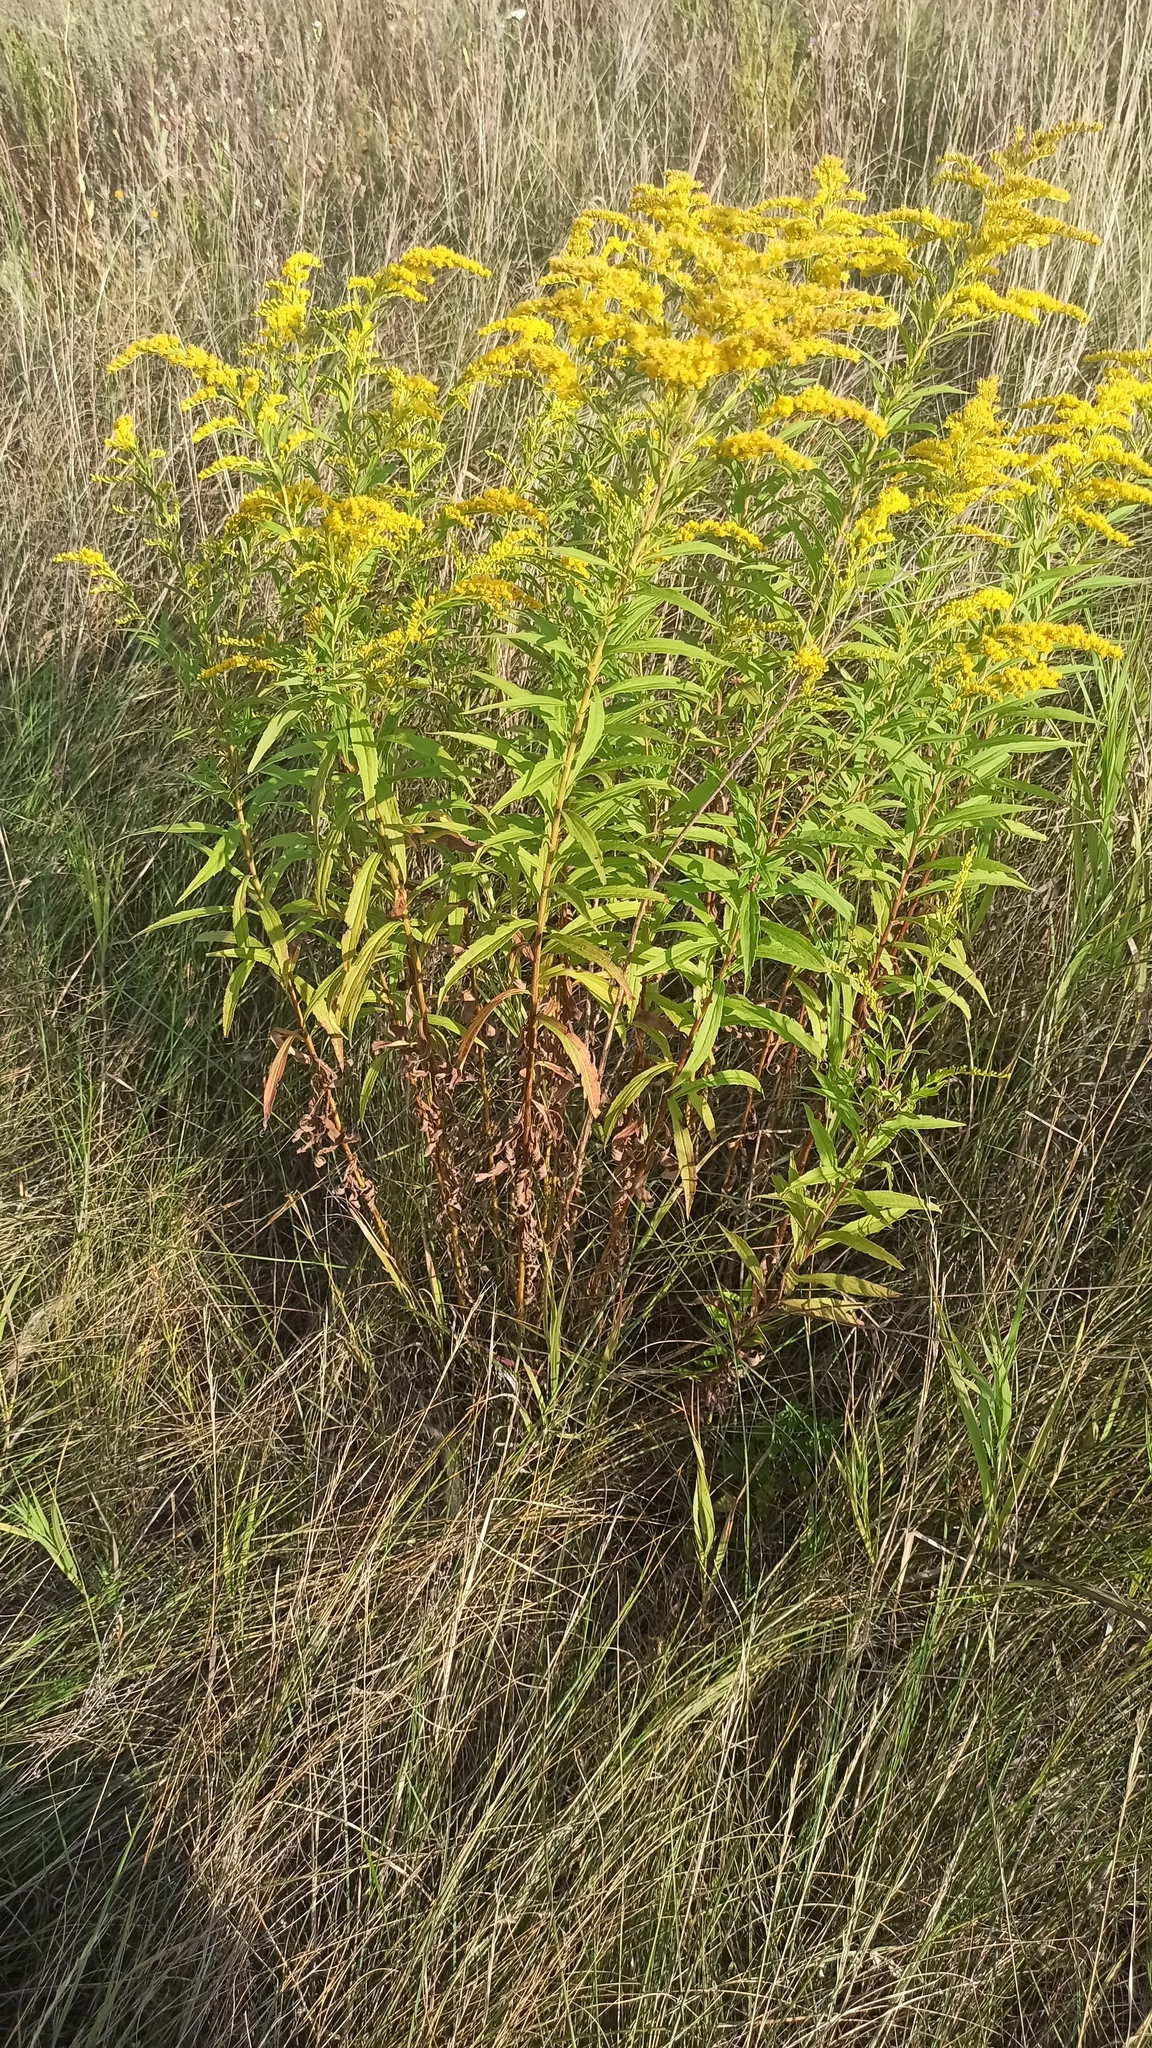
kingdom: Plantae
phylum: Tracheophyta
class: Magnoliopsida
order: Asterales
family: Asteraceae
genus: Solidago
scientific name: Solidago canadensis
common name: Canada goldenrod
